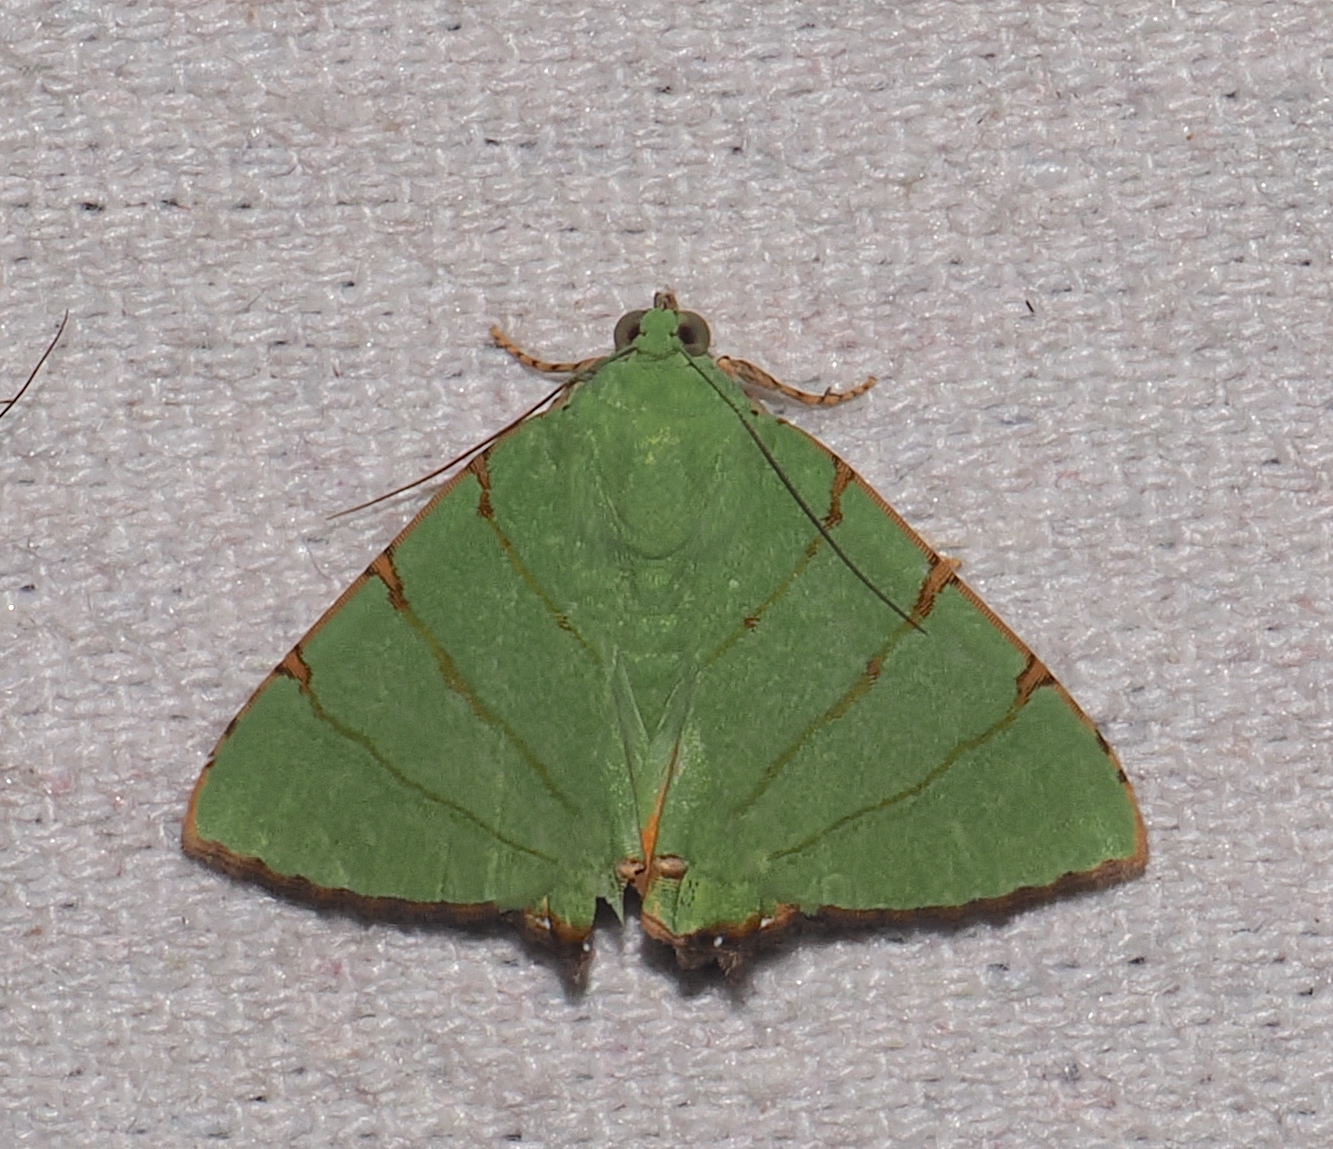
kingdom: Animalia
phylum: Arthropoda
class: Insecta
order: Lepidoptera
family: Erebidae
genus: Eulepidotis
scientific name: Eulepidotis folium
